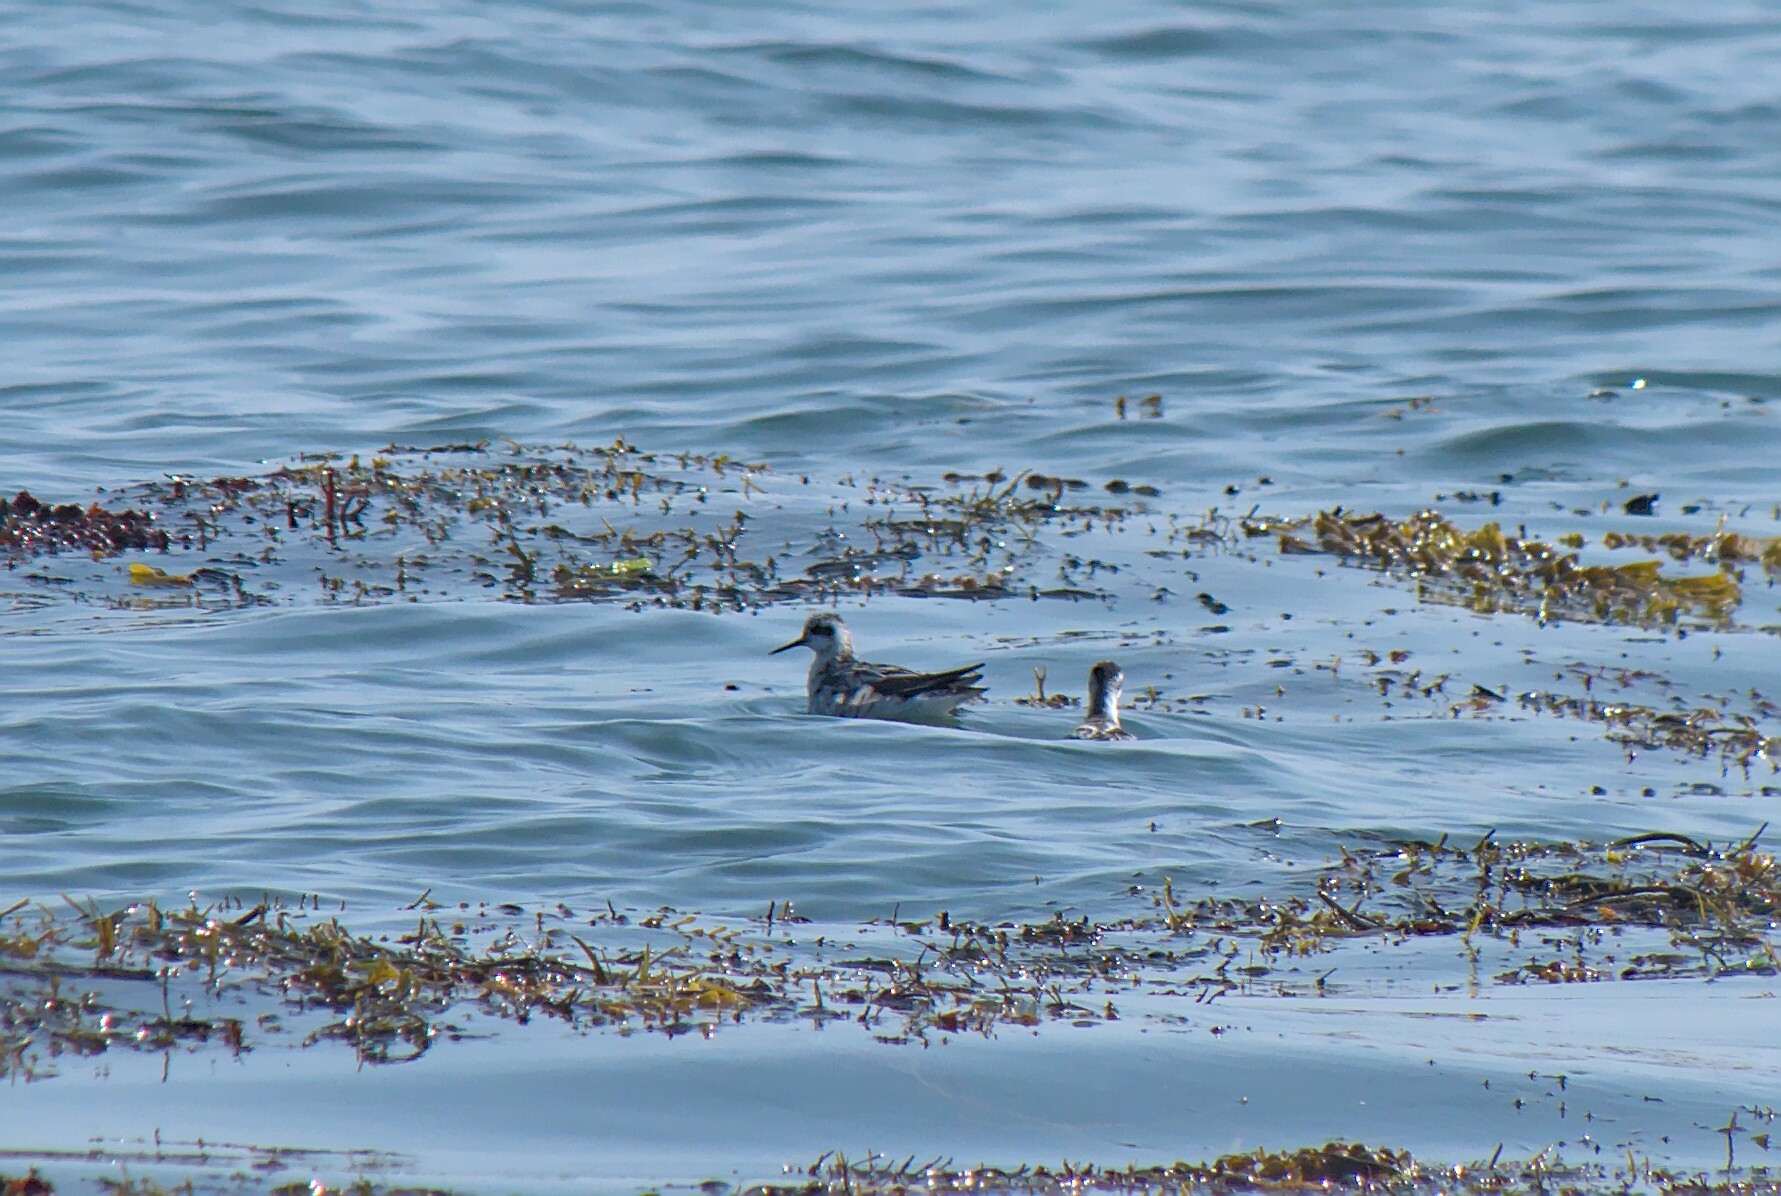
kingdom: Animalia
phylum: Chordata
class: Aves
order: Charadriiformes
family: Scolopacidae
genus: Phalaropus
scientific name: Phalaropus lobatus
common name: Red-necked phalarope
